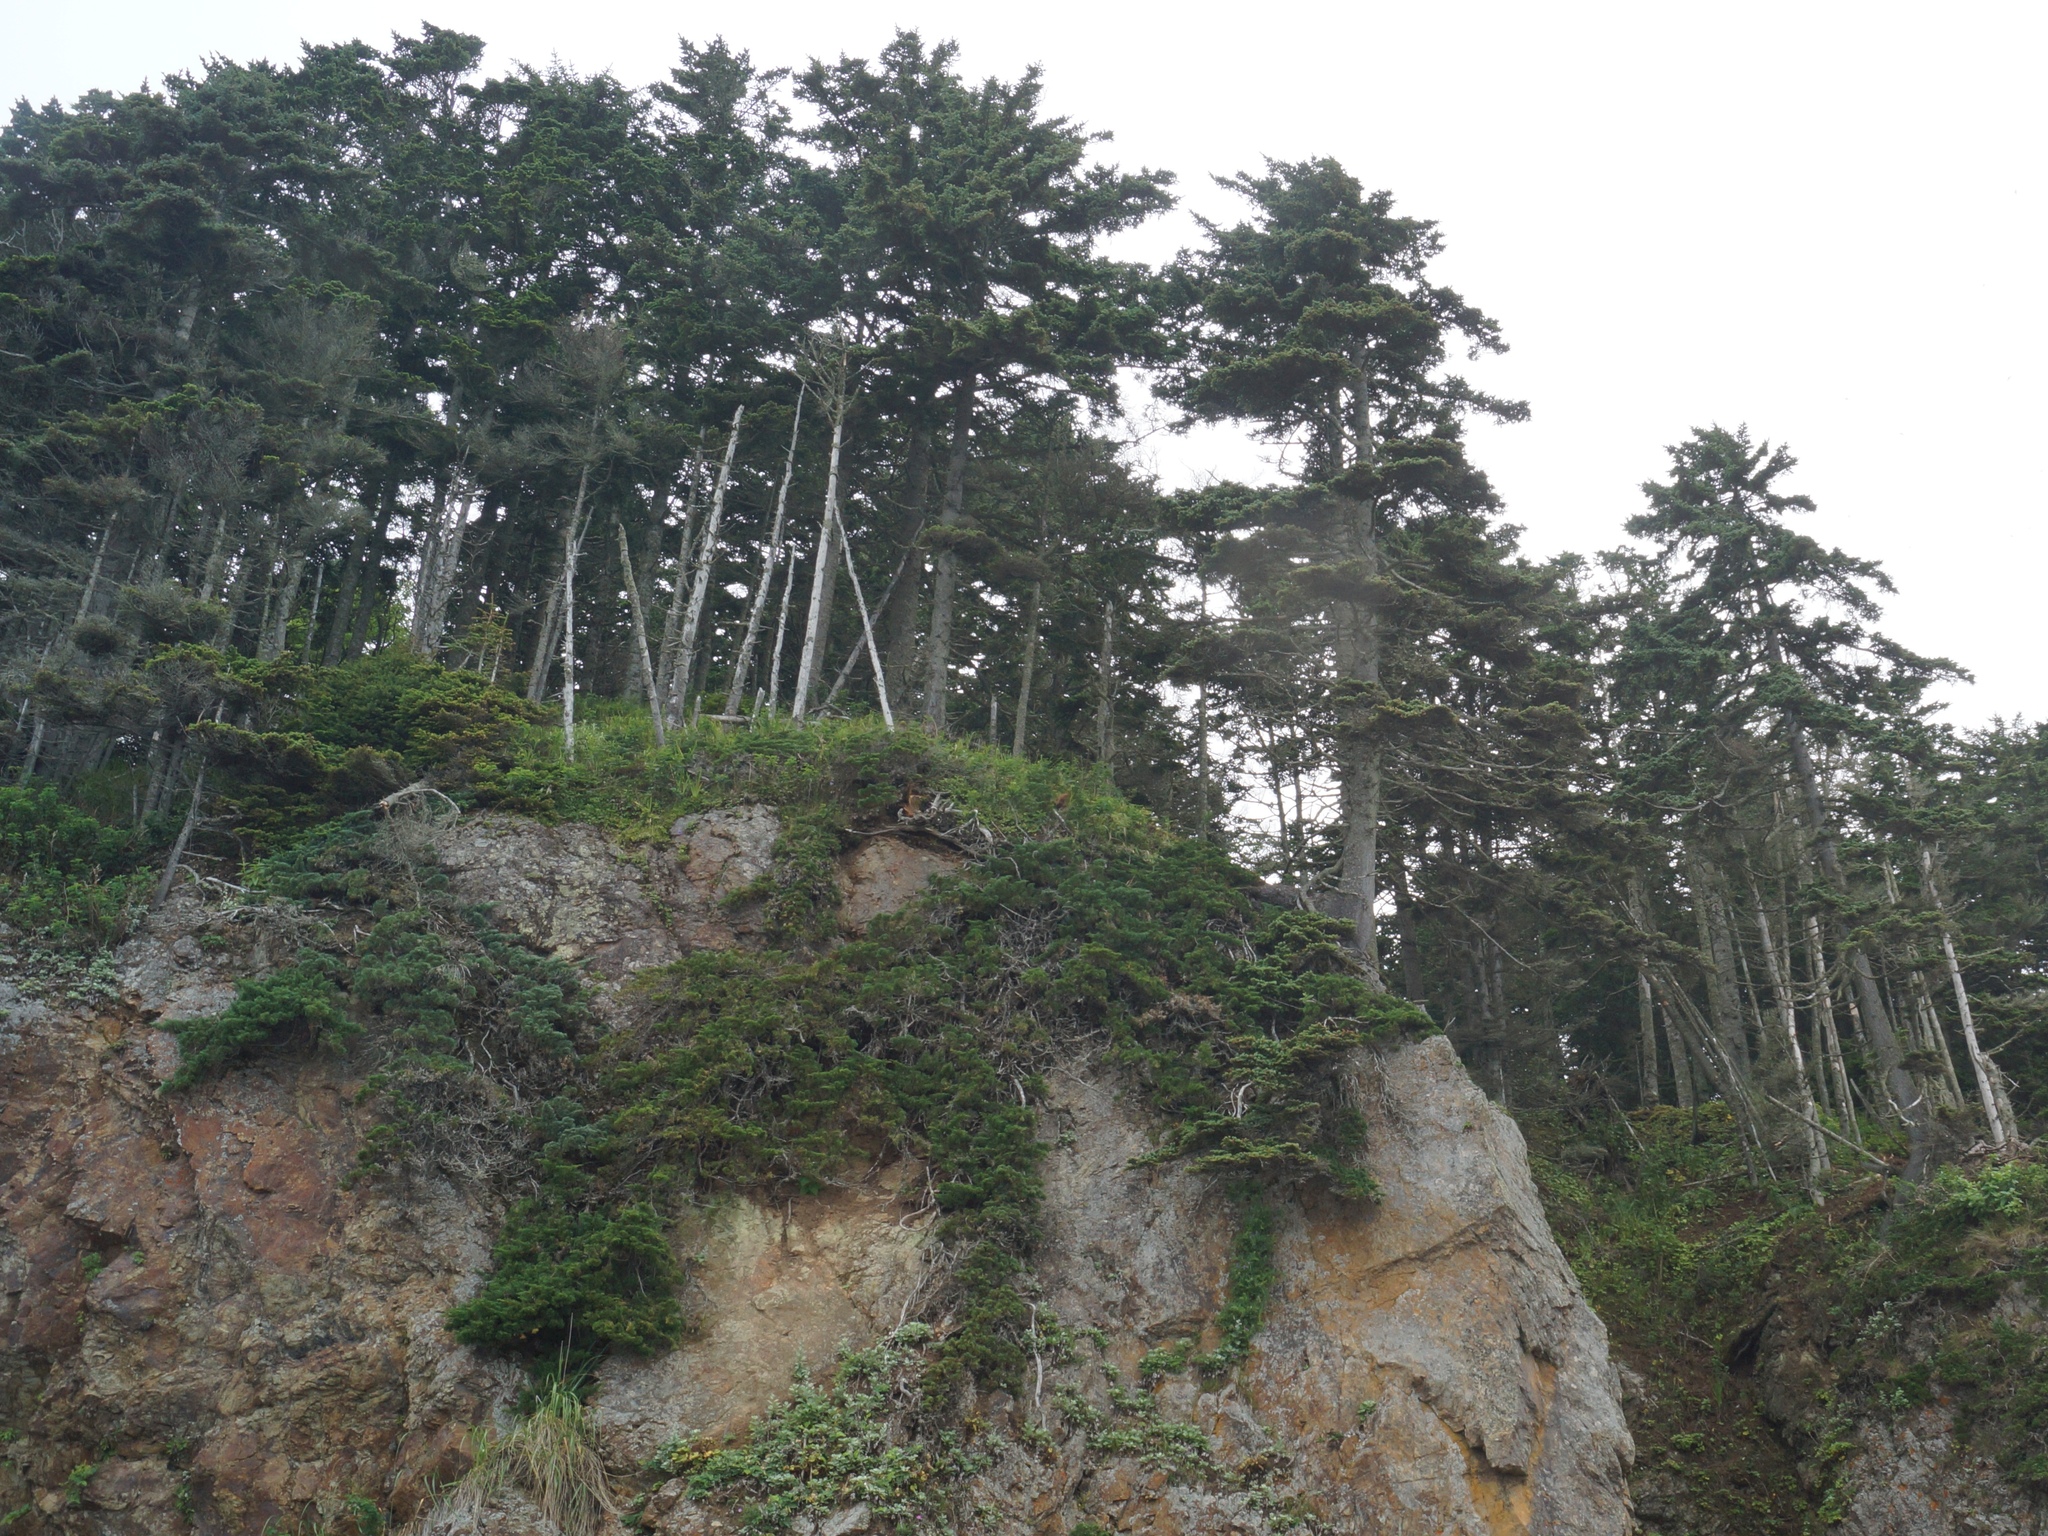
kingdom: Plantae
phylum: Tracheophyta
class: Pinopsida
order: Pinales
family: Pinaceae
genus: Picea
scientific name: Picea jezoensis
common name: Yeddo spruce
